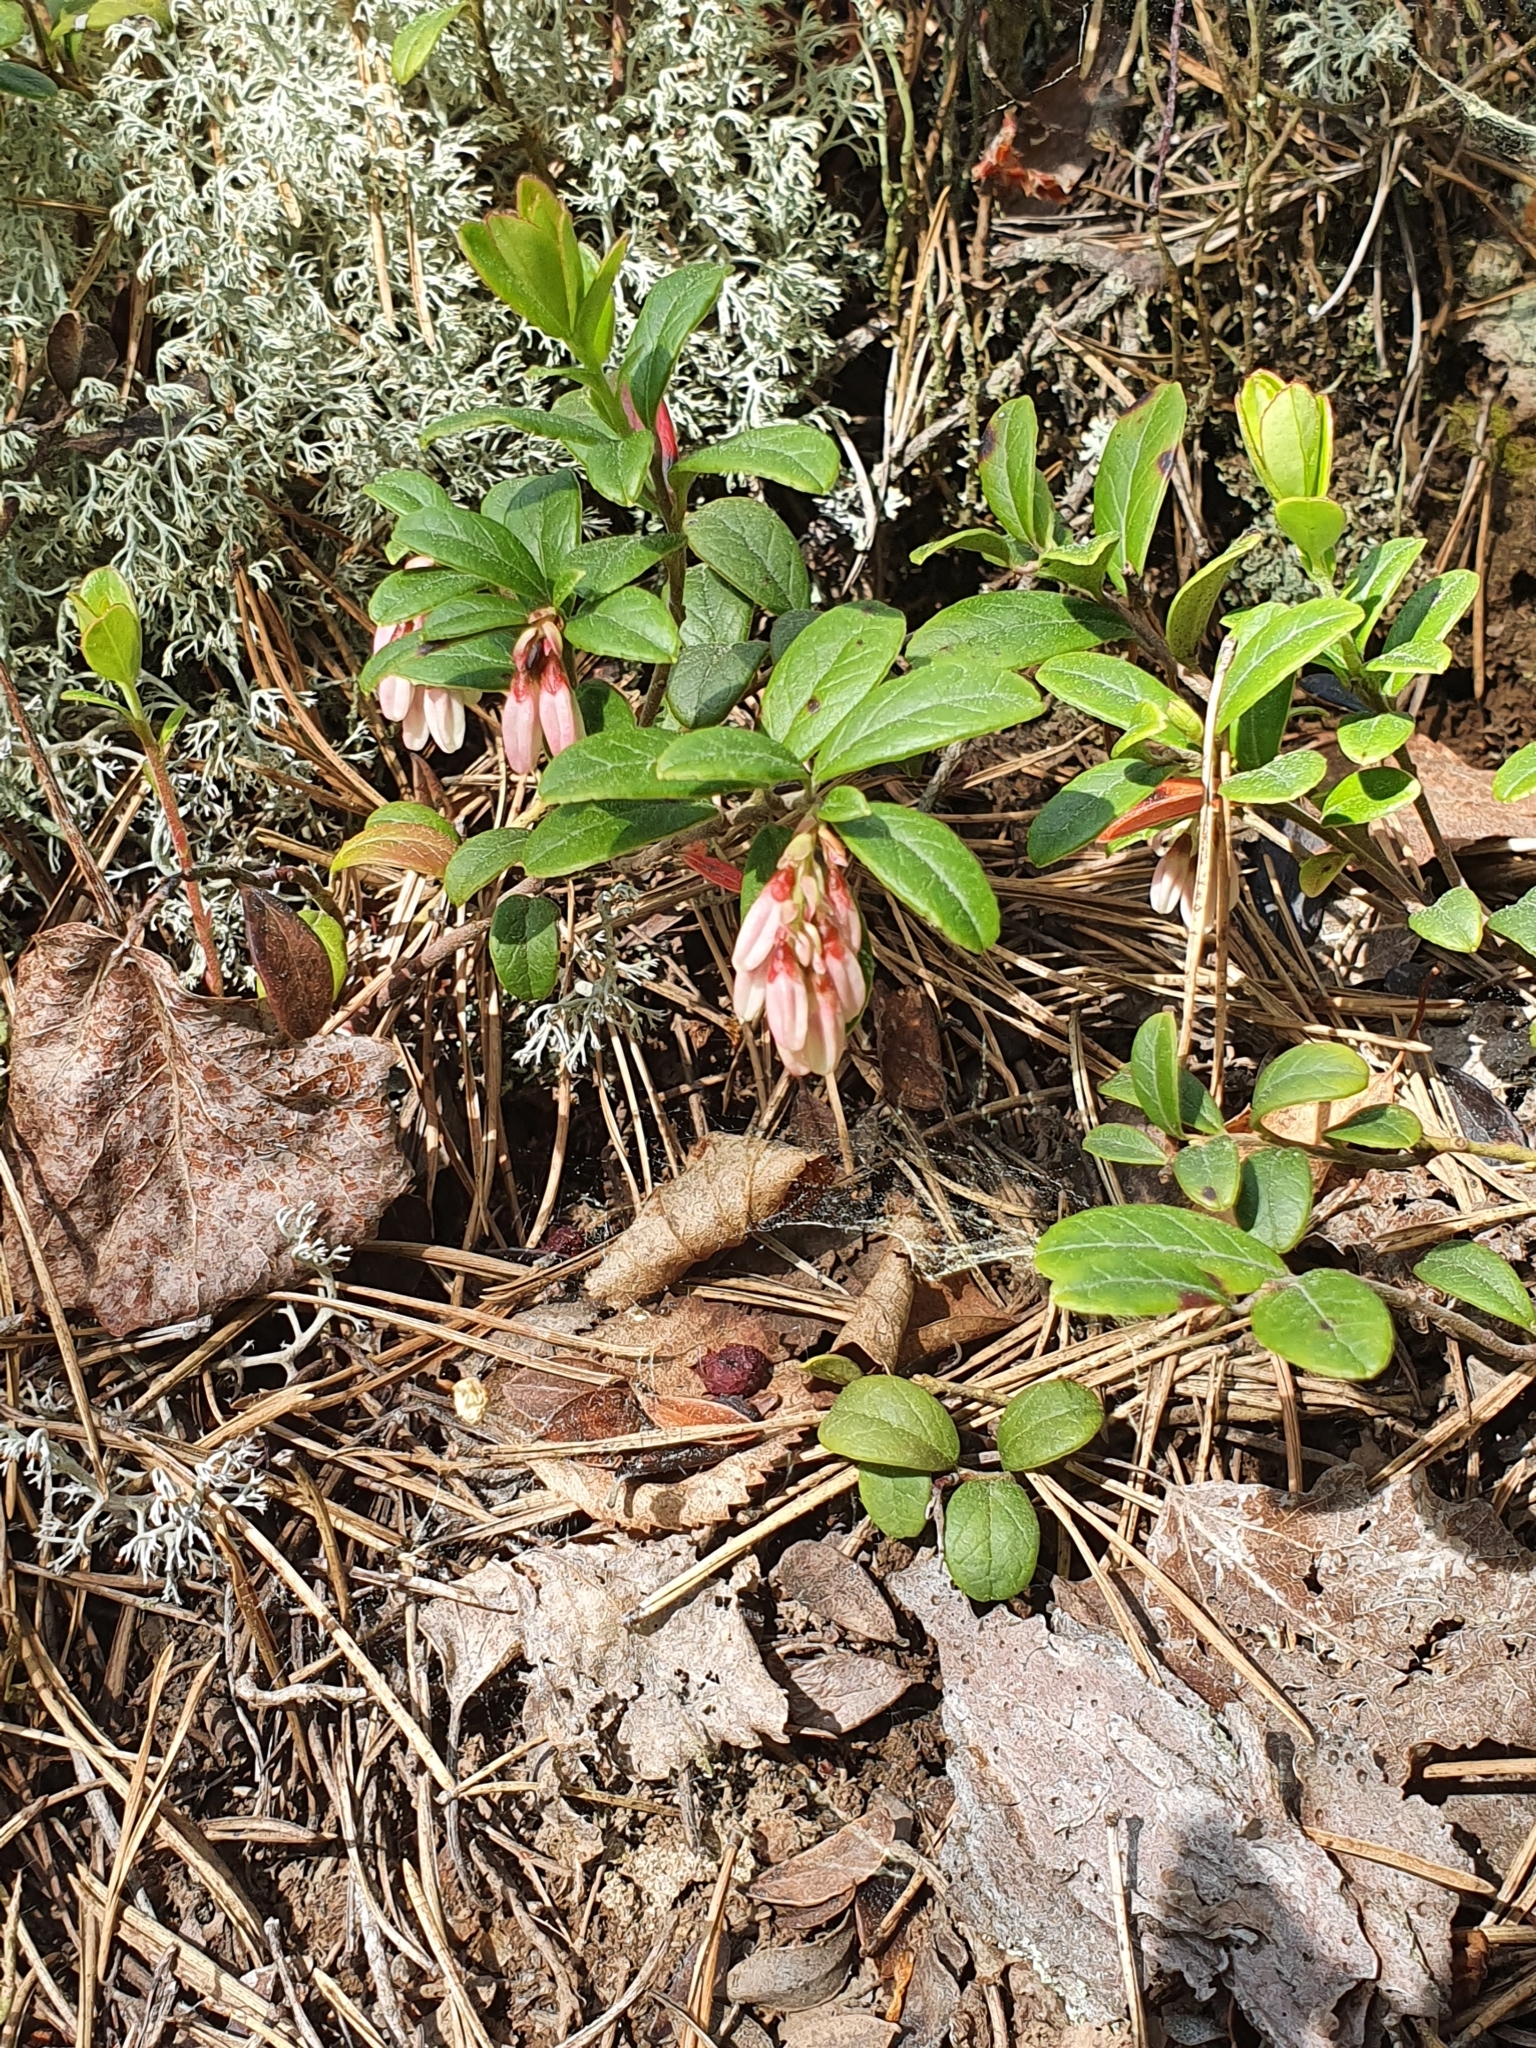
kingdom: Plantae
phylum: Tracheophyta
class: Magnoliopsida
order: Ericales
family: Ericaceae
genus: Vaccinium
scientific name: Vaccinium vitis-idaea
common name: Cowberry
